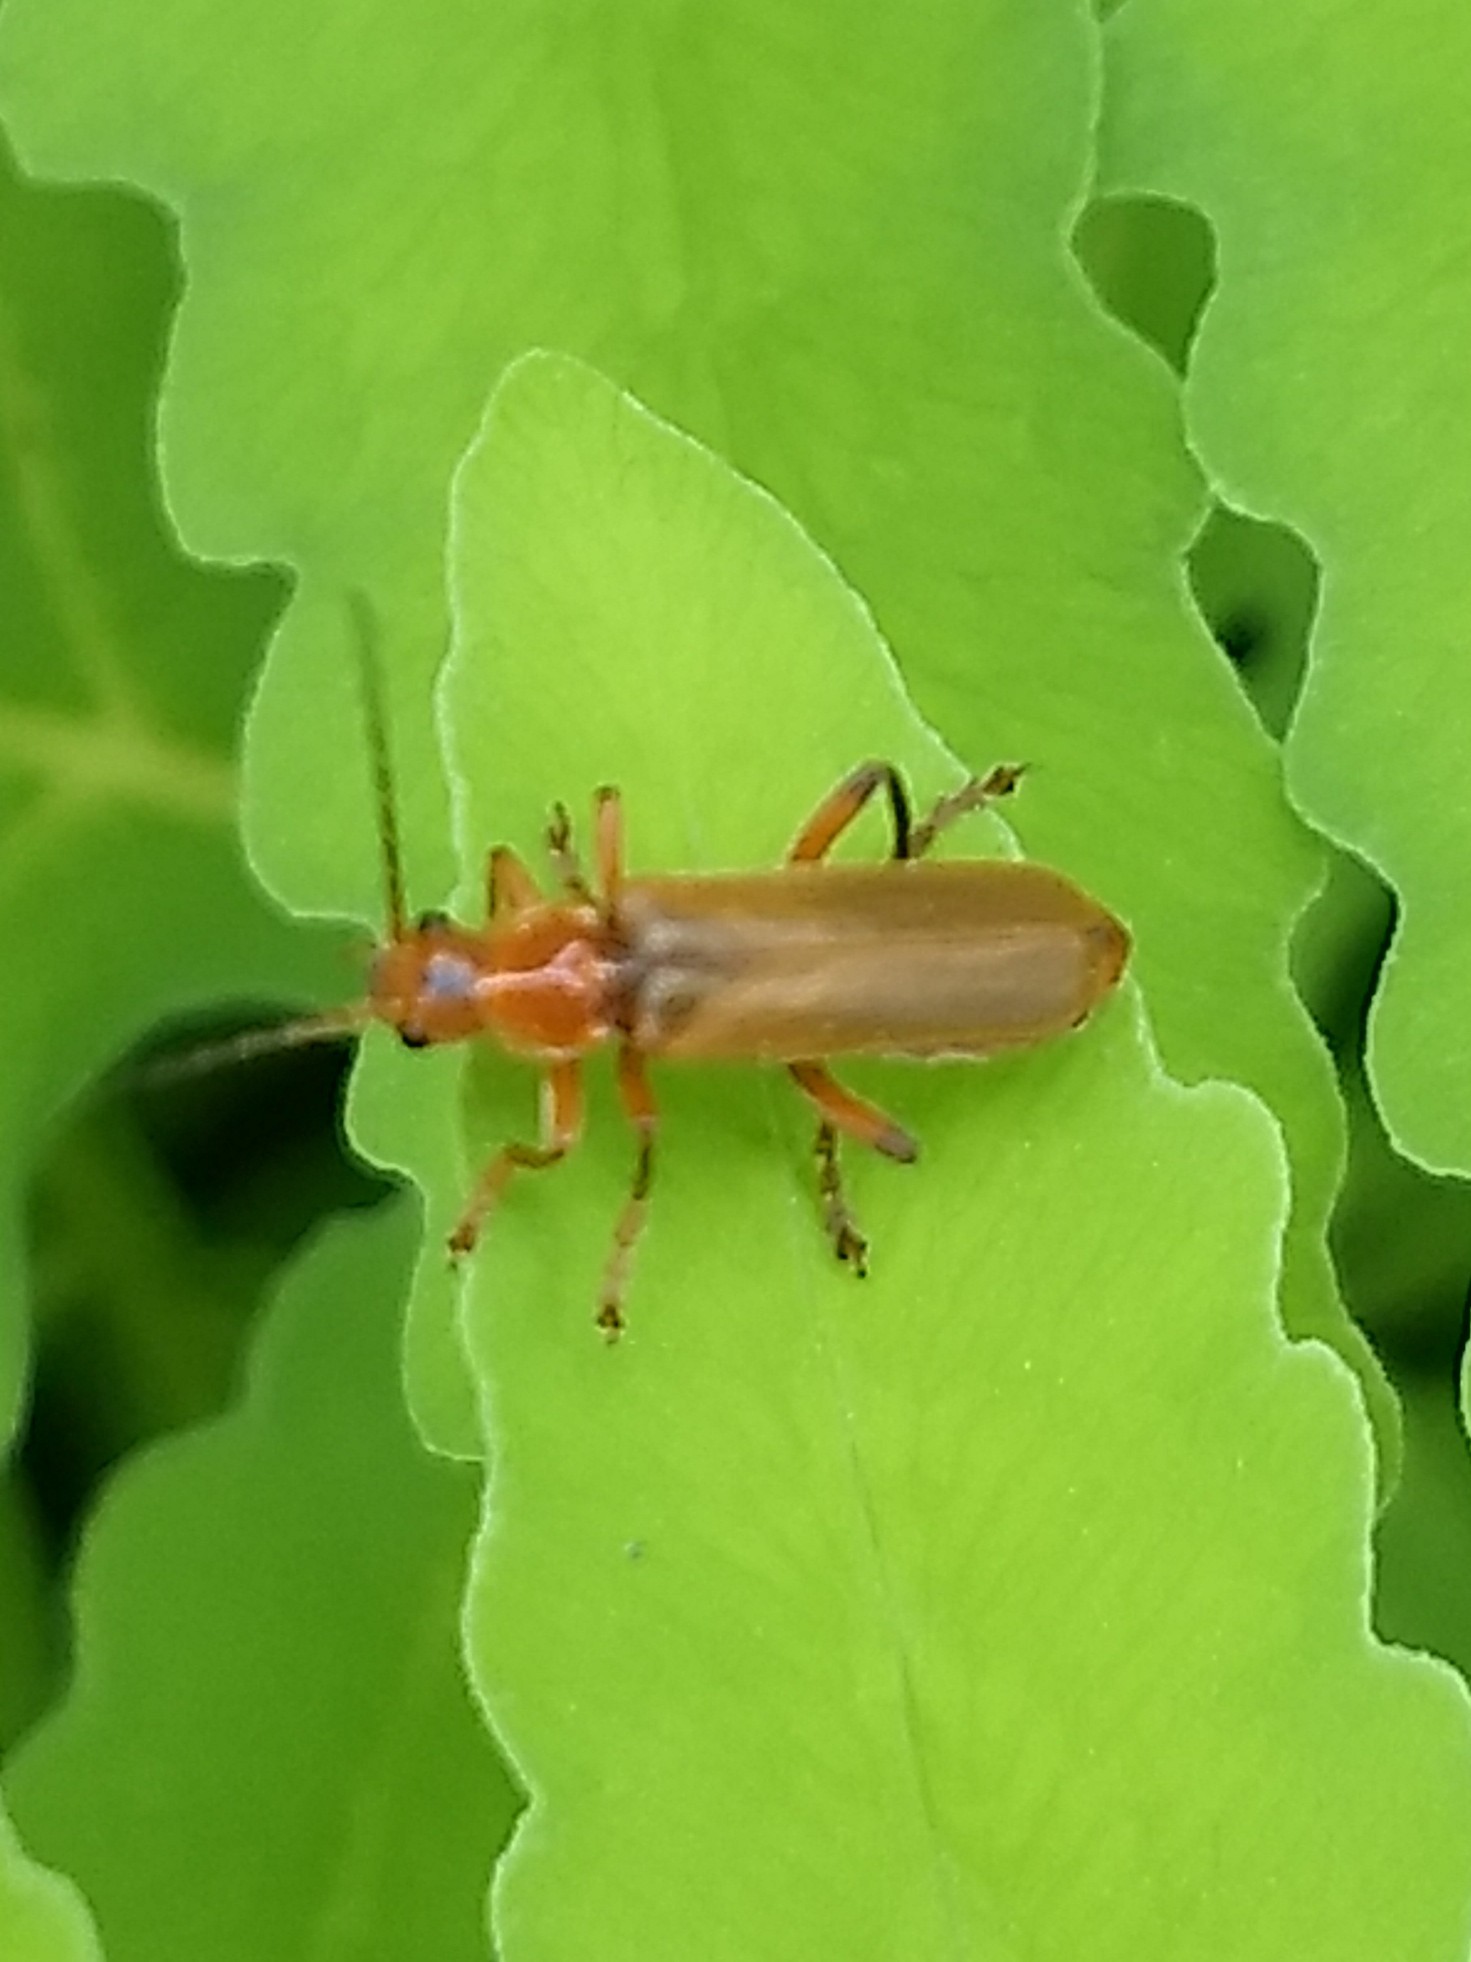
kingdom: Animalia
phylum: Arthropoda
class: Insecta
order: Coleoptera
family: Cantharidae
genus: Cantharis
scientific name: Cantharis livida
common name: Livid soldier beetle
